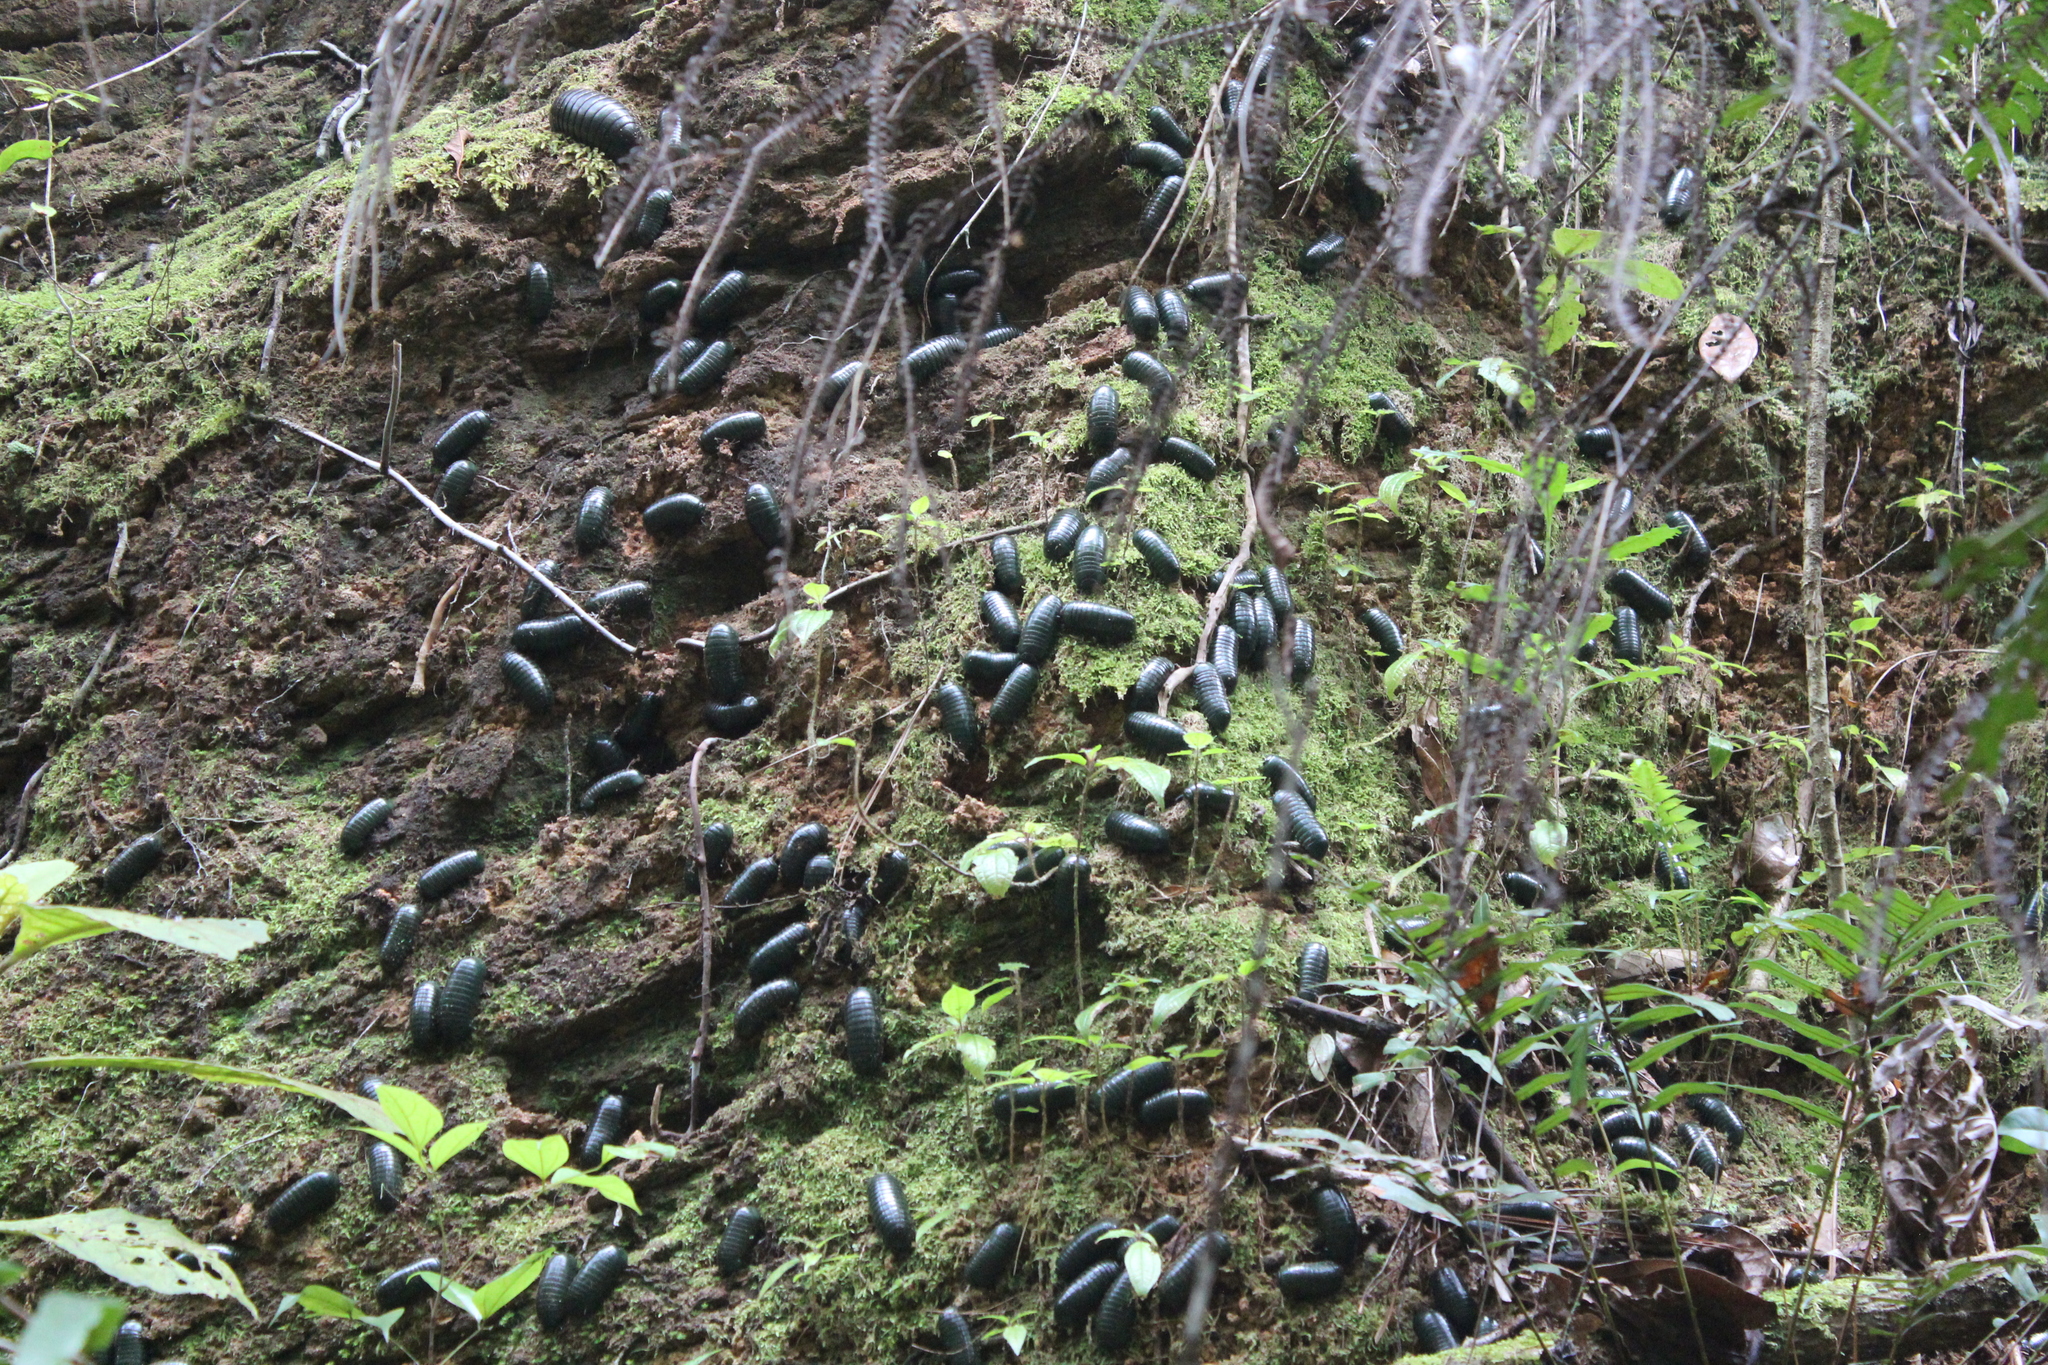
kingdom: Animalia
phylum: Arthropoda
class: Diplopoda
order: Sphaerotheriida
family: Arthrosphaeridae
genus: Zoosphaerium
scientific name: Zoosphaerium neptunus
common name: Emerald green giant pill-millipede
